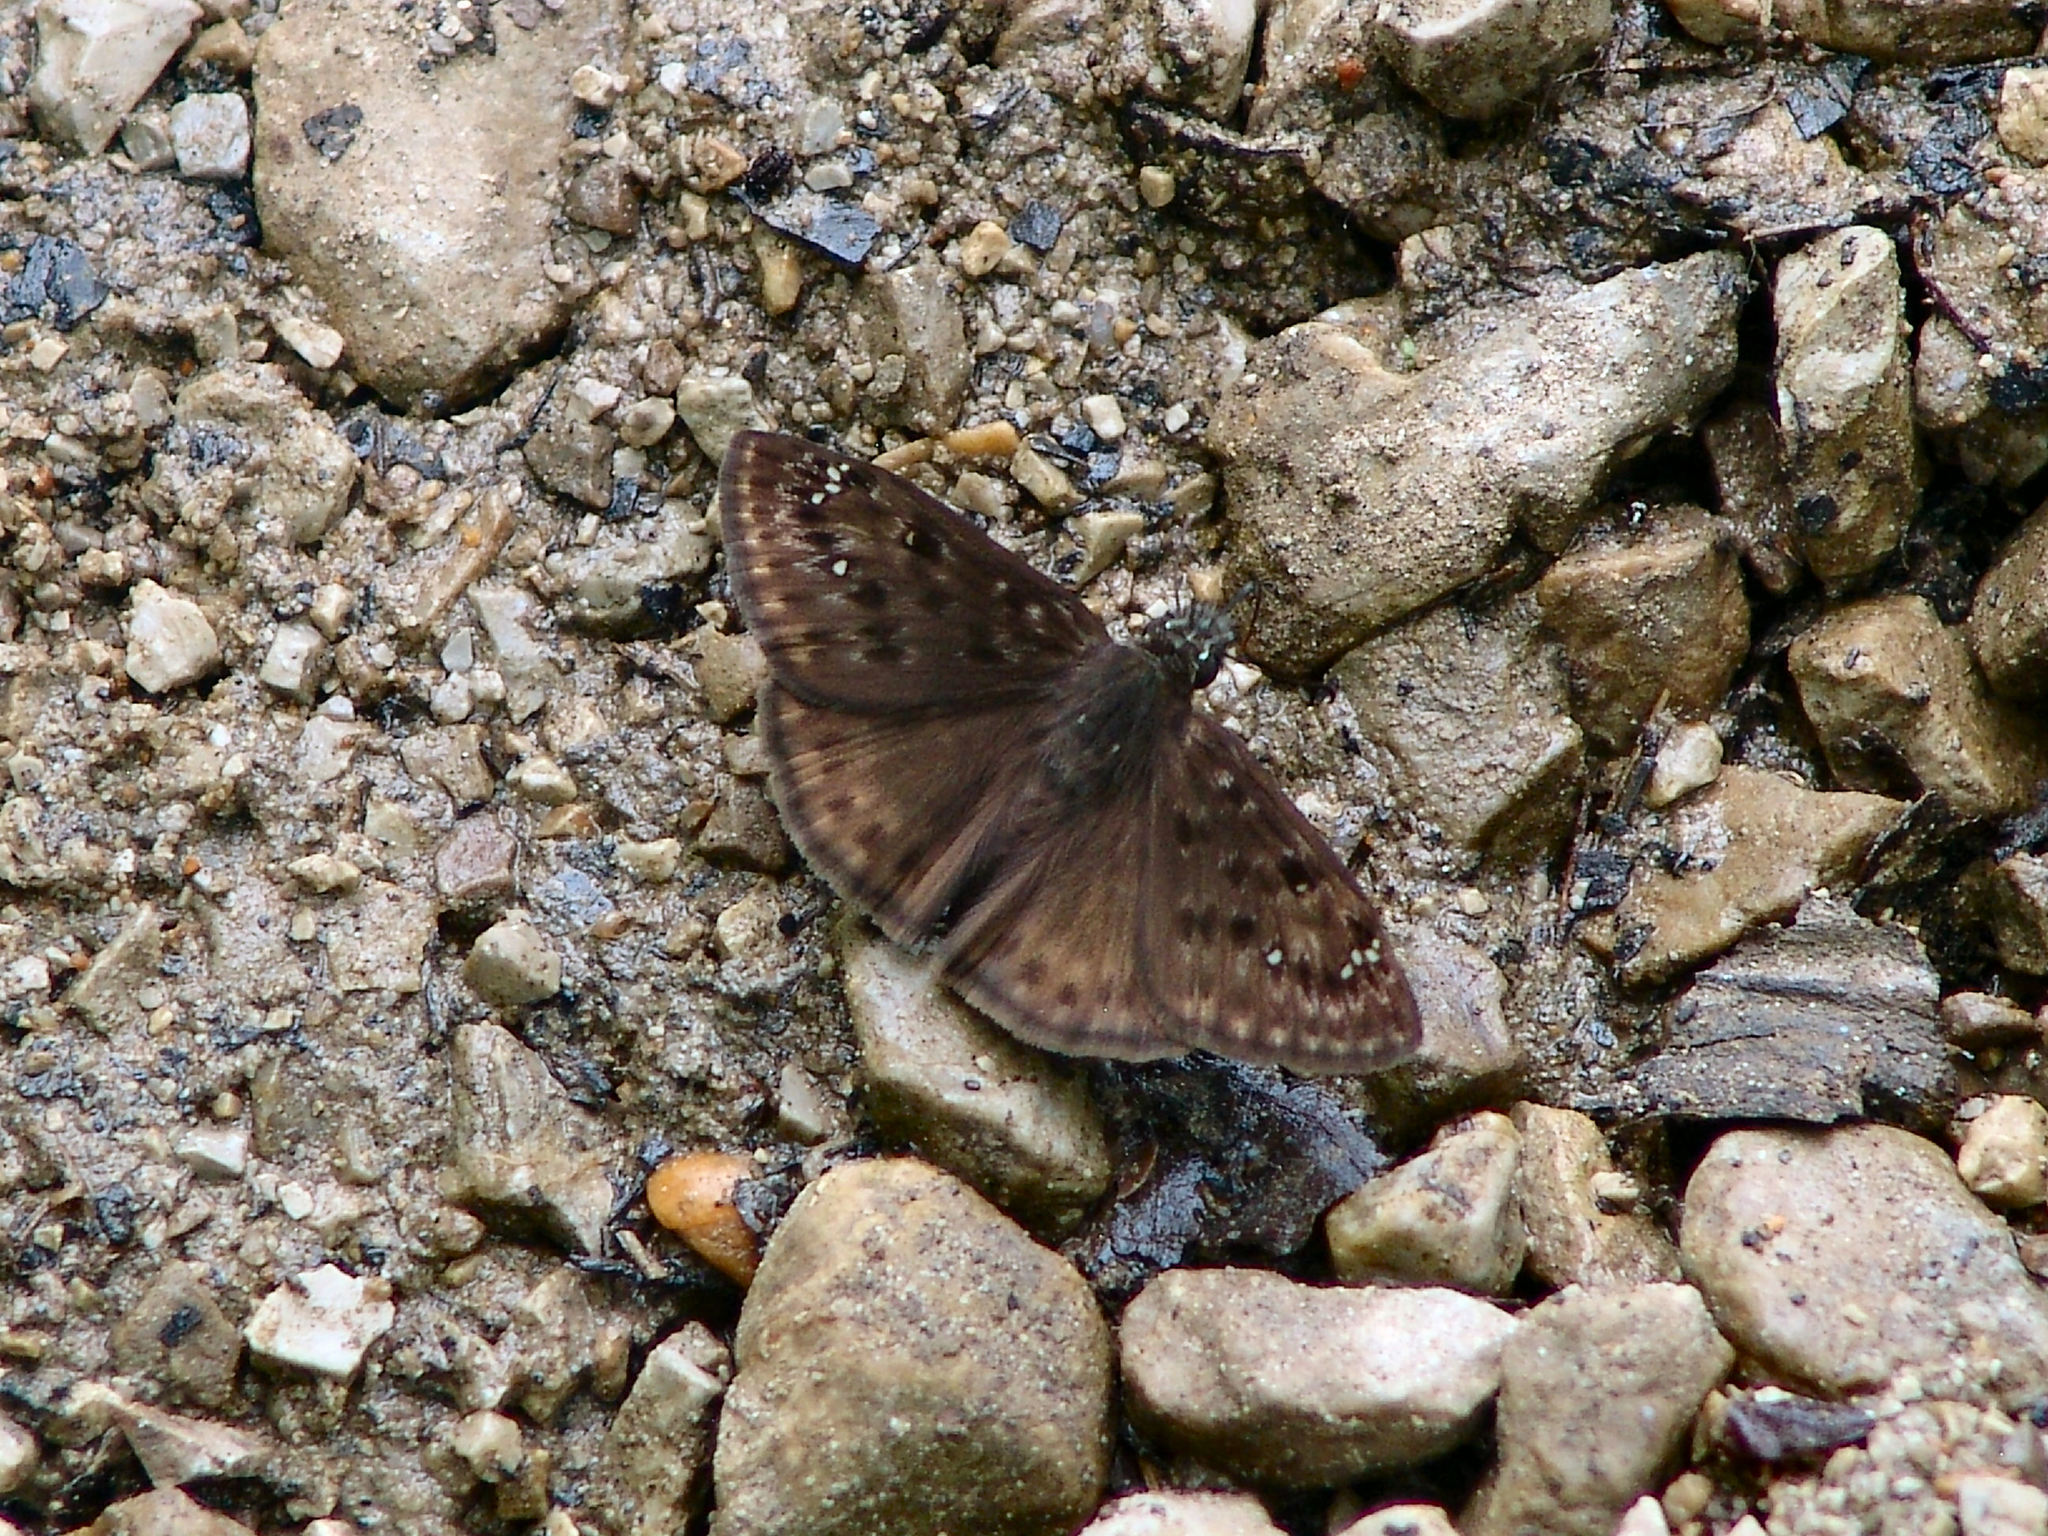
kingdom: Animalia
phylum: Arthropoda
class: Insecta
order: Lepidoptera
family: Hesperiidae
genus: Erynnis
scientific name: Erynnis horatius
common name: Horace's duskywing
